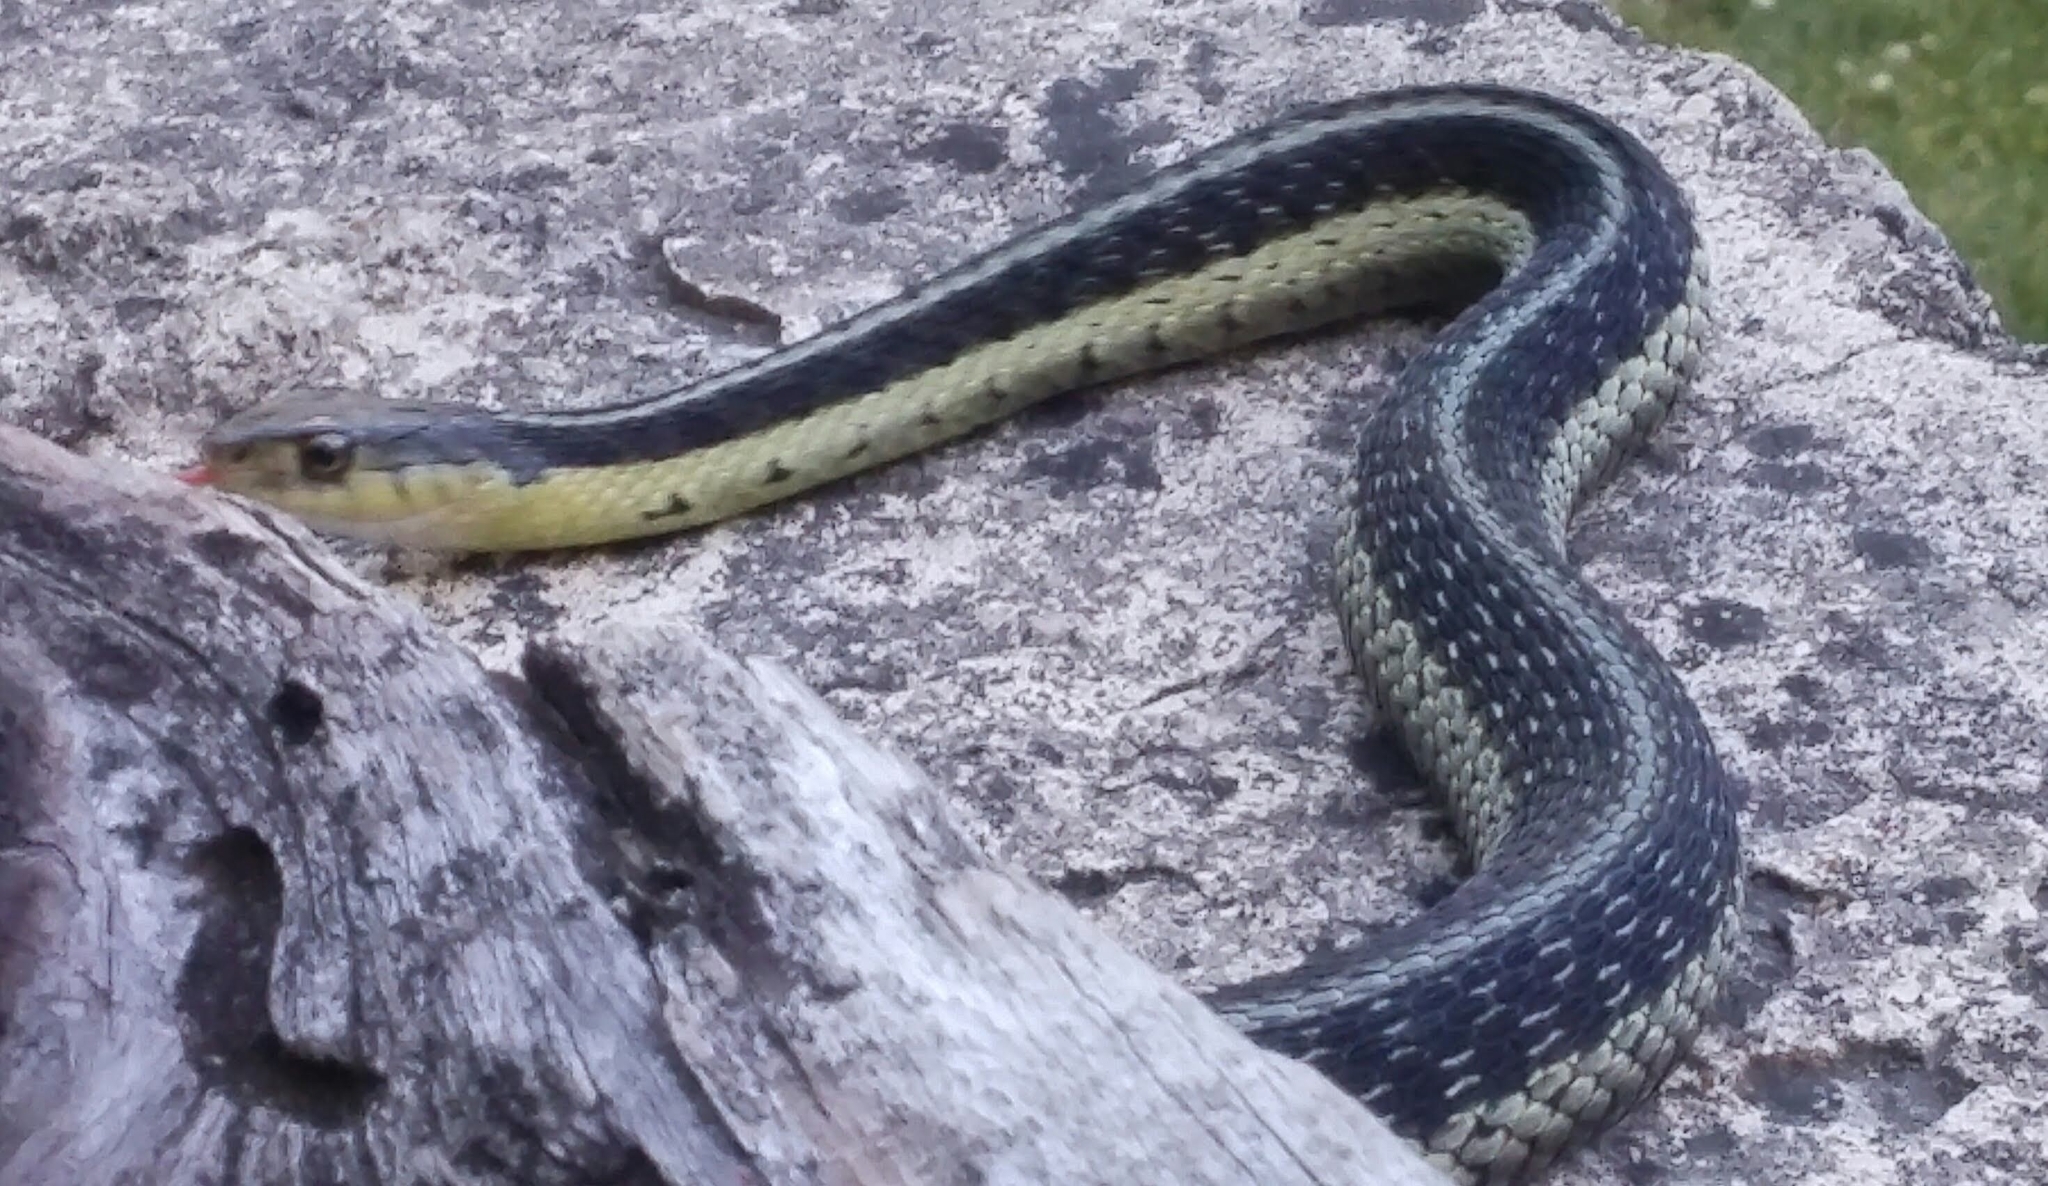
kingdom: Animalia
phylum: Chordata
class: Squamata
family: Colubridae
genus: Thamnophis
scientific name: Thamnophis sirtalis
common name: Common garter snake
